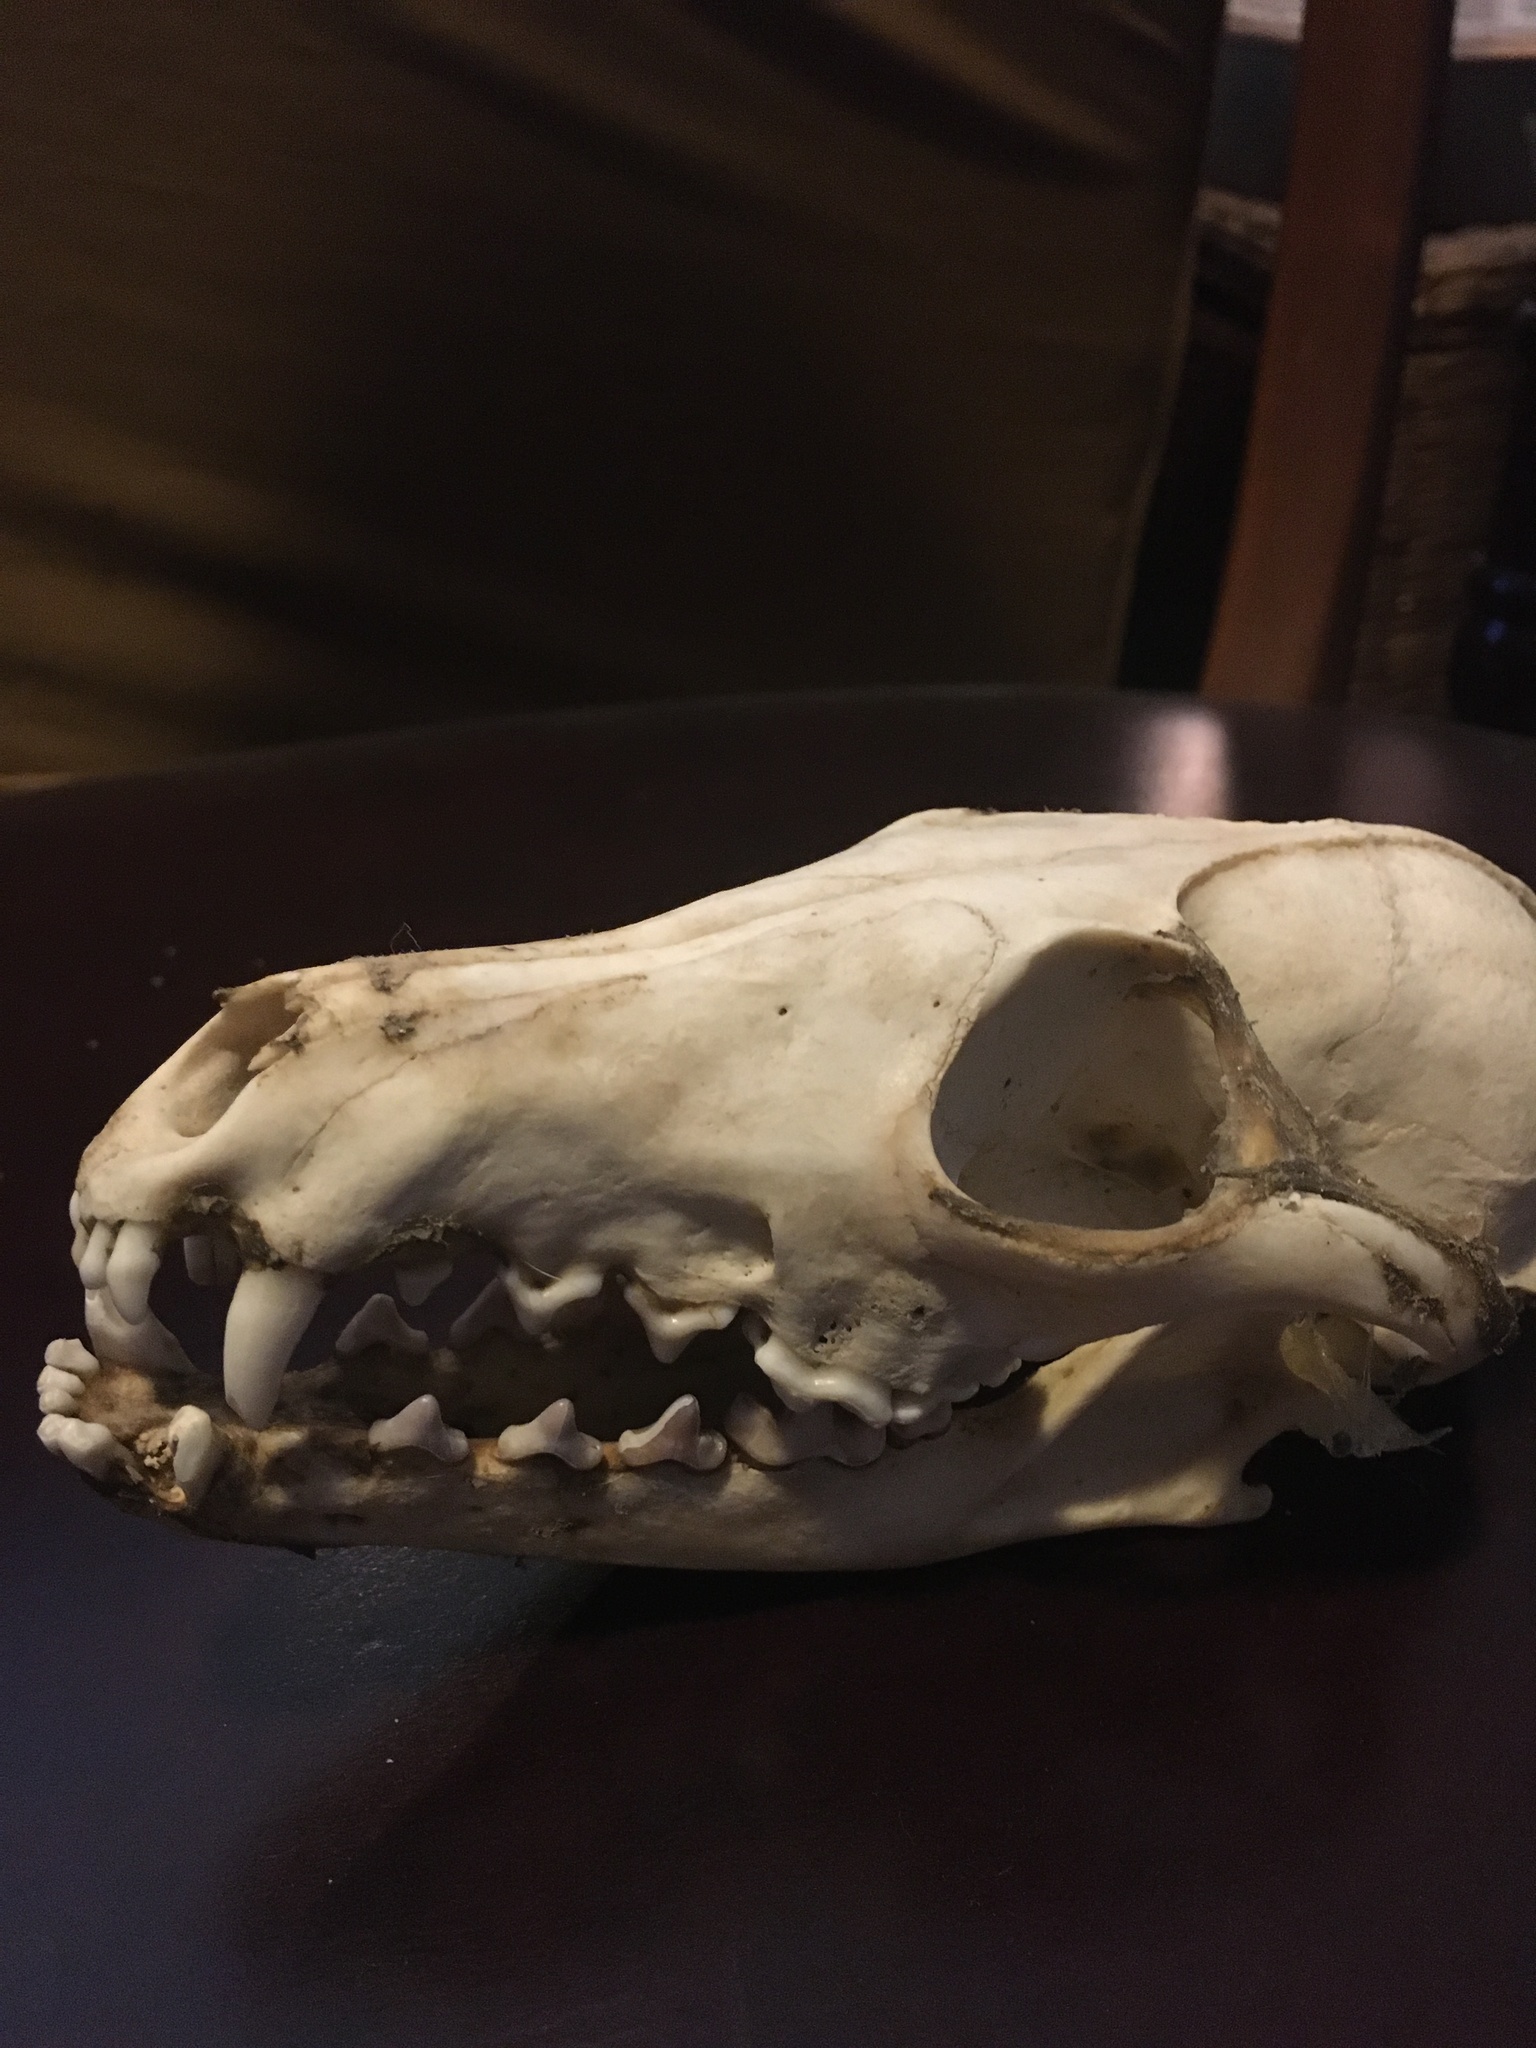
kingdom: Animalia
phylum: Chordata
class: Mammalia
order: Carnivora
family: Canidae
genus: Vulpes
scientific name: Vulpes vulpes
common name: Red fox
